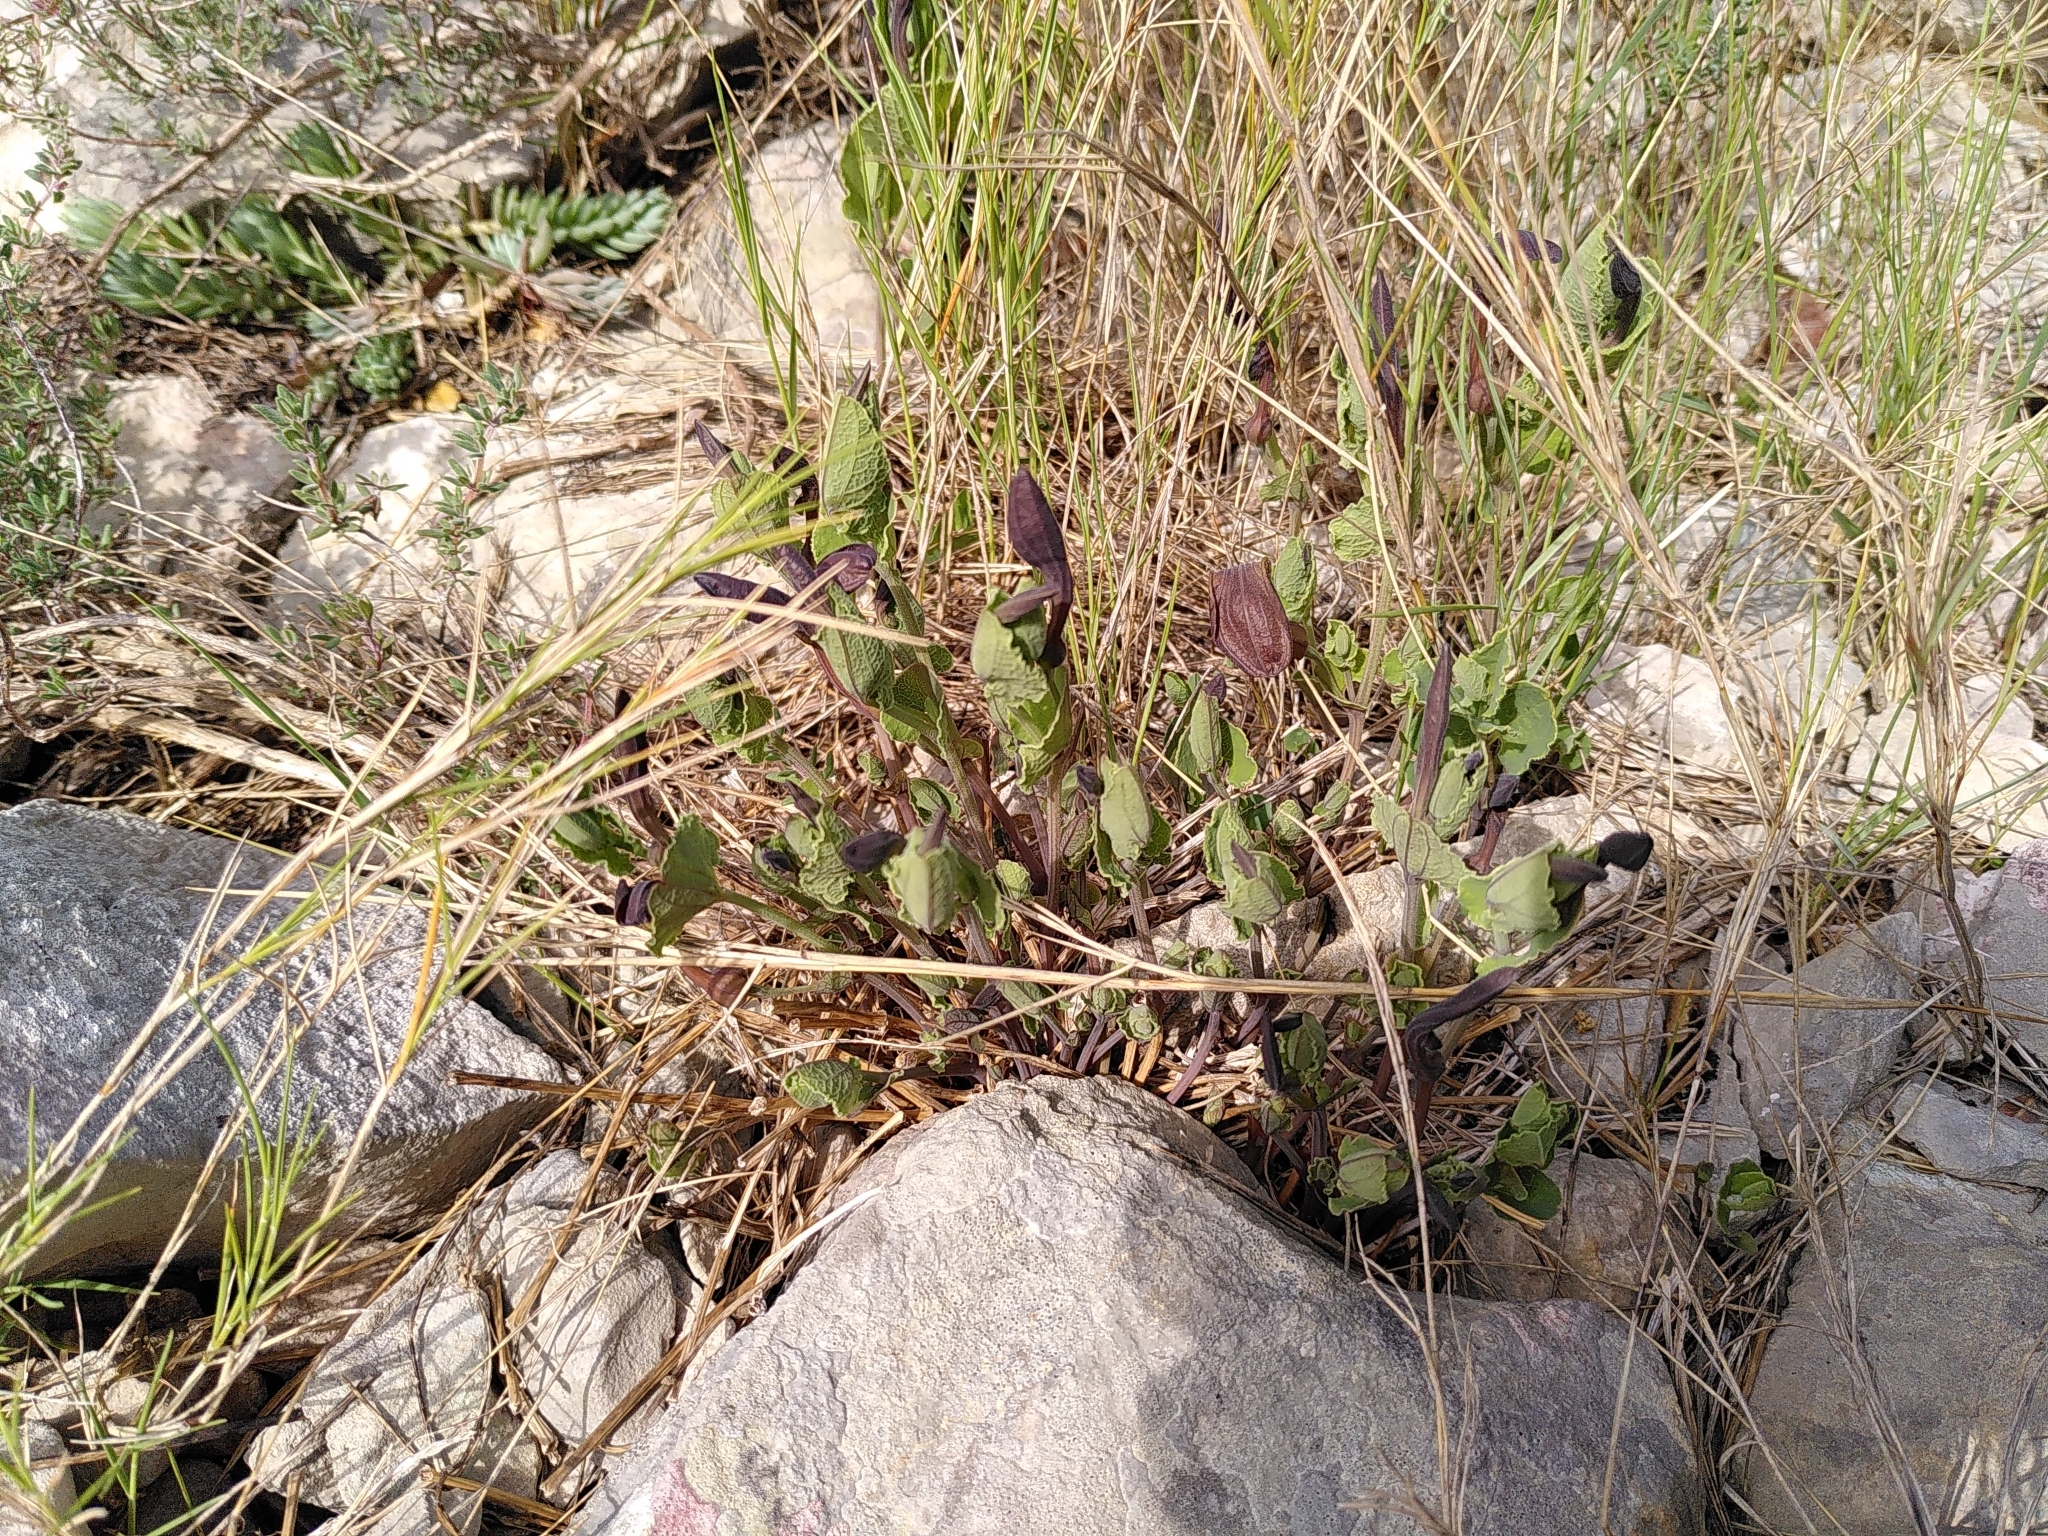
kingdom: Plantae
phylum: Tracheophyta
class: Magnoliopsida
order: Piperales
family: Aristolochiaceae
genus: Aristolochia
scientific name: Aristolochia pistolochia
